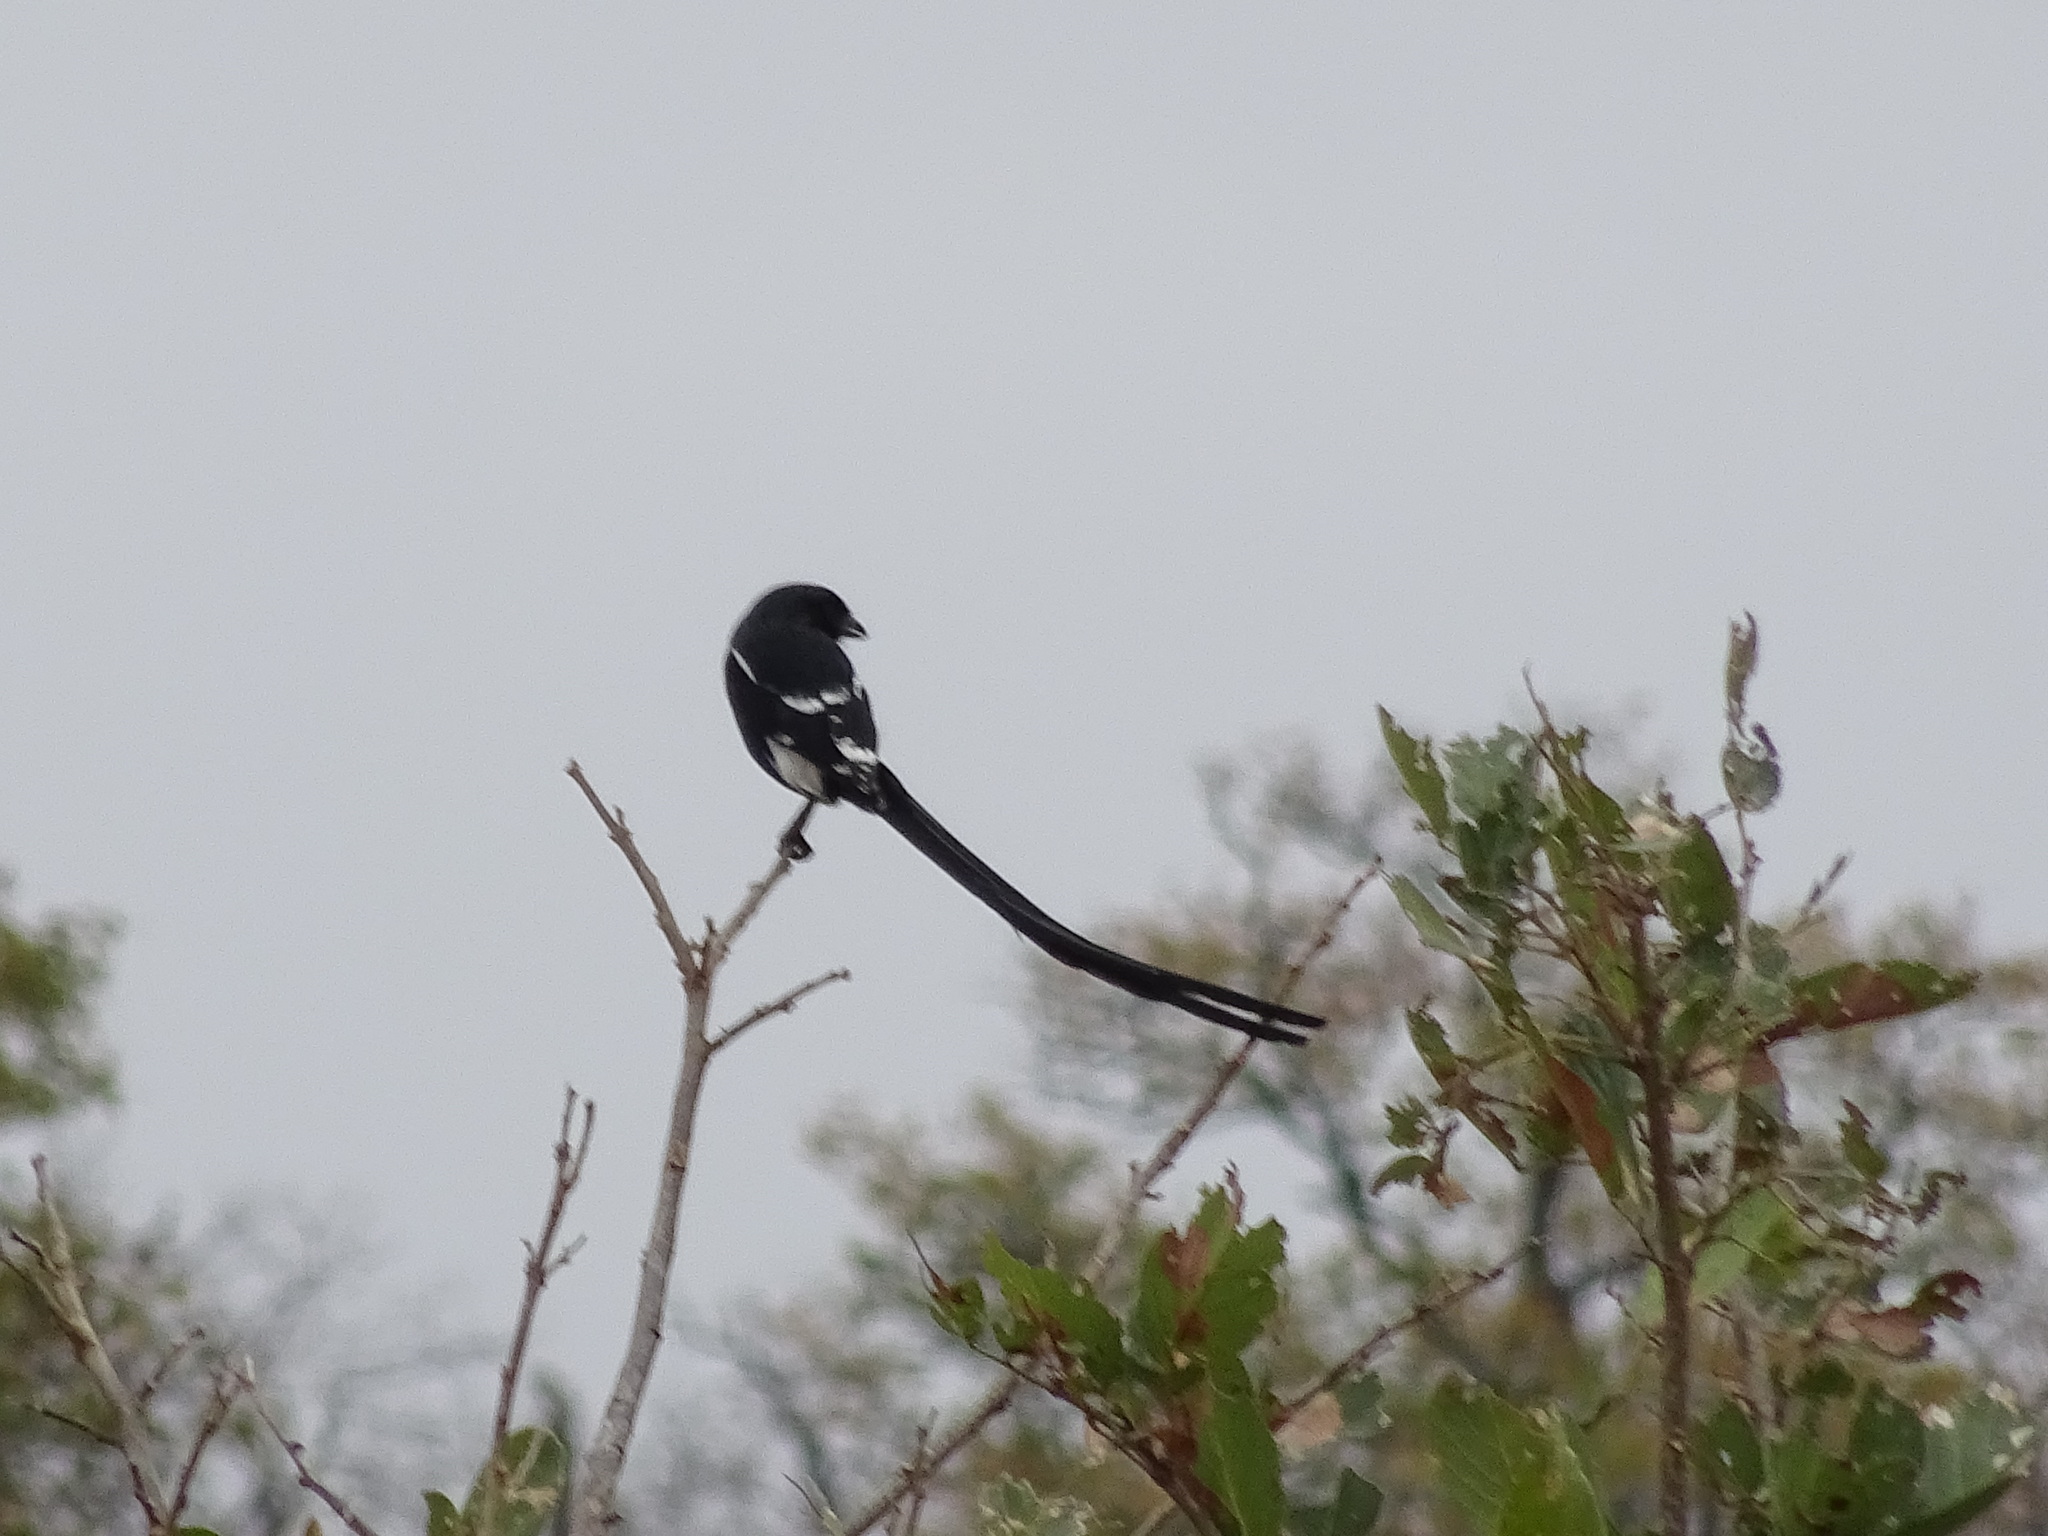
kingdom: Animalia
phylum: Chordata
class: Aves
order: Passeriformes
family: Laniidae
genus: Urolestes
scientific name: Urolestes melanoleucus
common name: Magpie shrike
